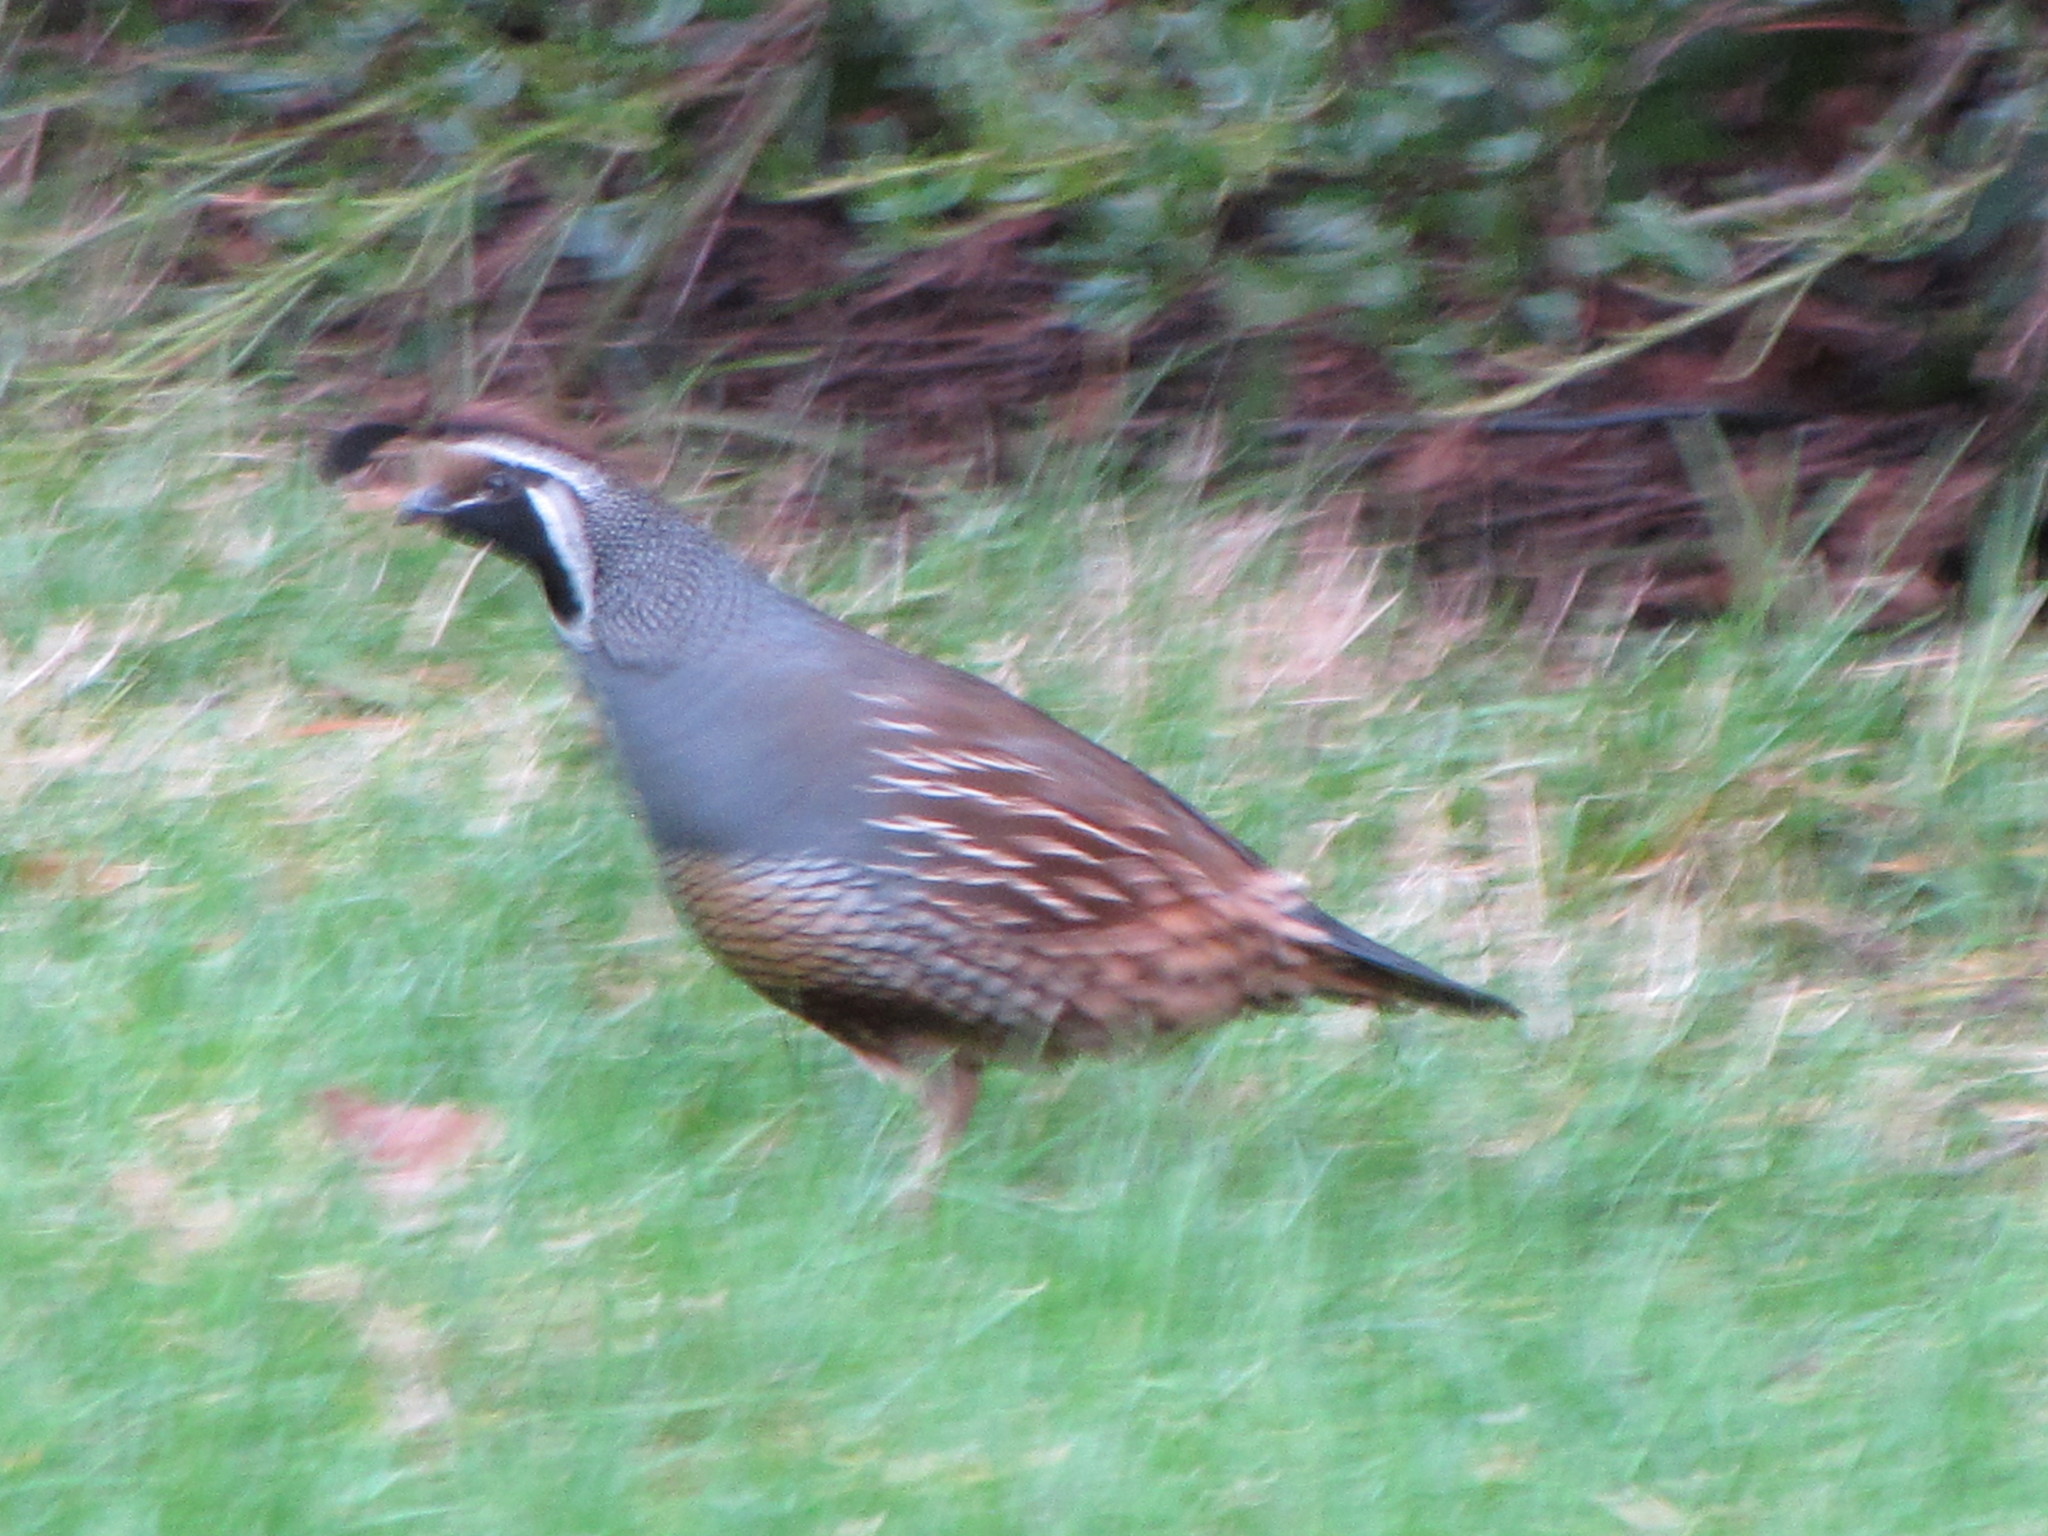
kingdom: Animalia
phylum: Chordata
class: Aves
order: Galliformes
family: Odontophoridae
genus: Callipepla
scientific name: Callipepla californica
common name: California quail
